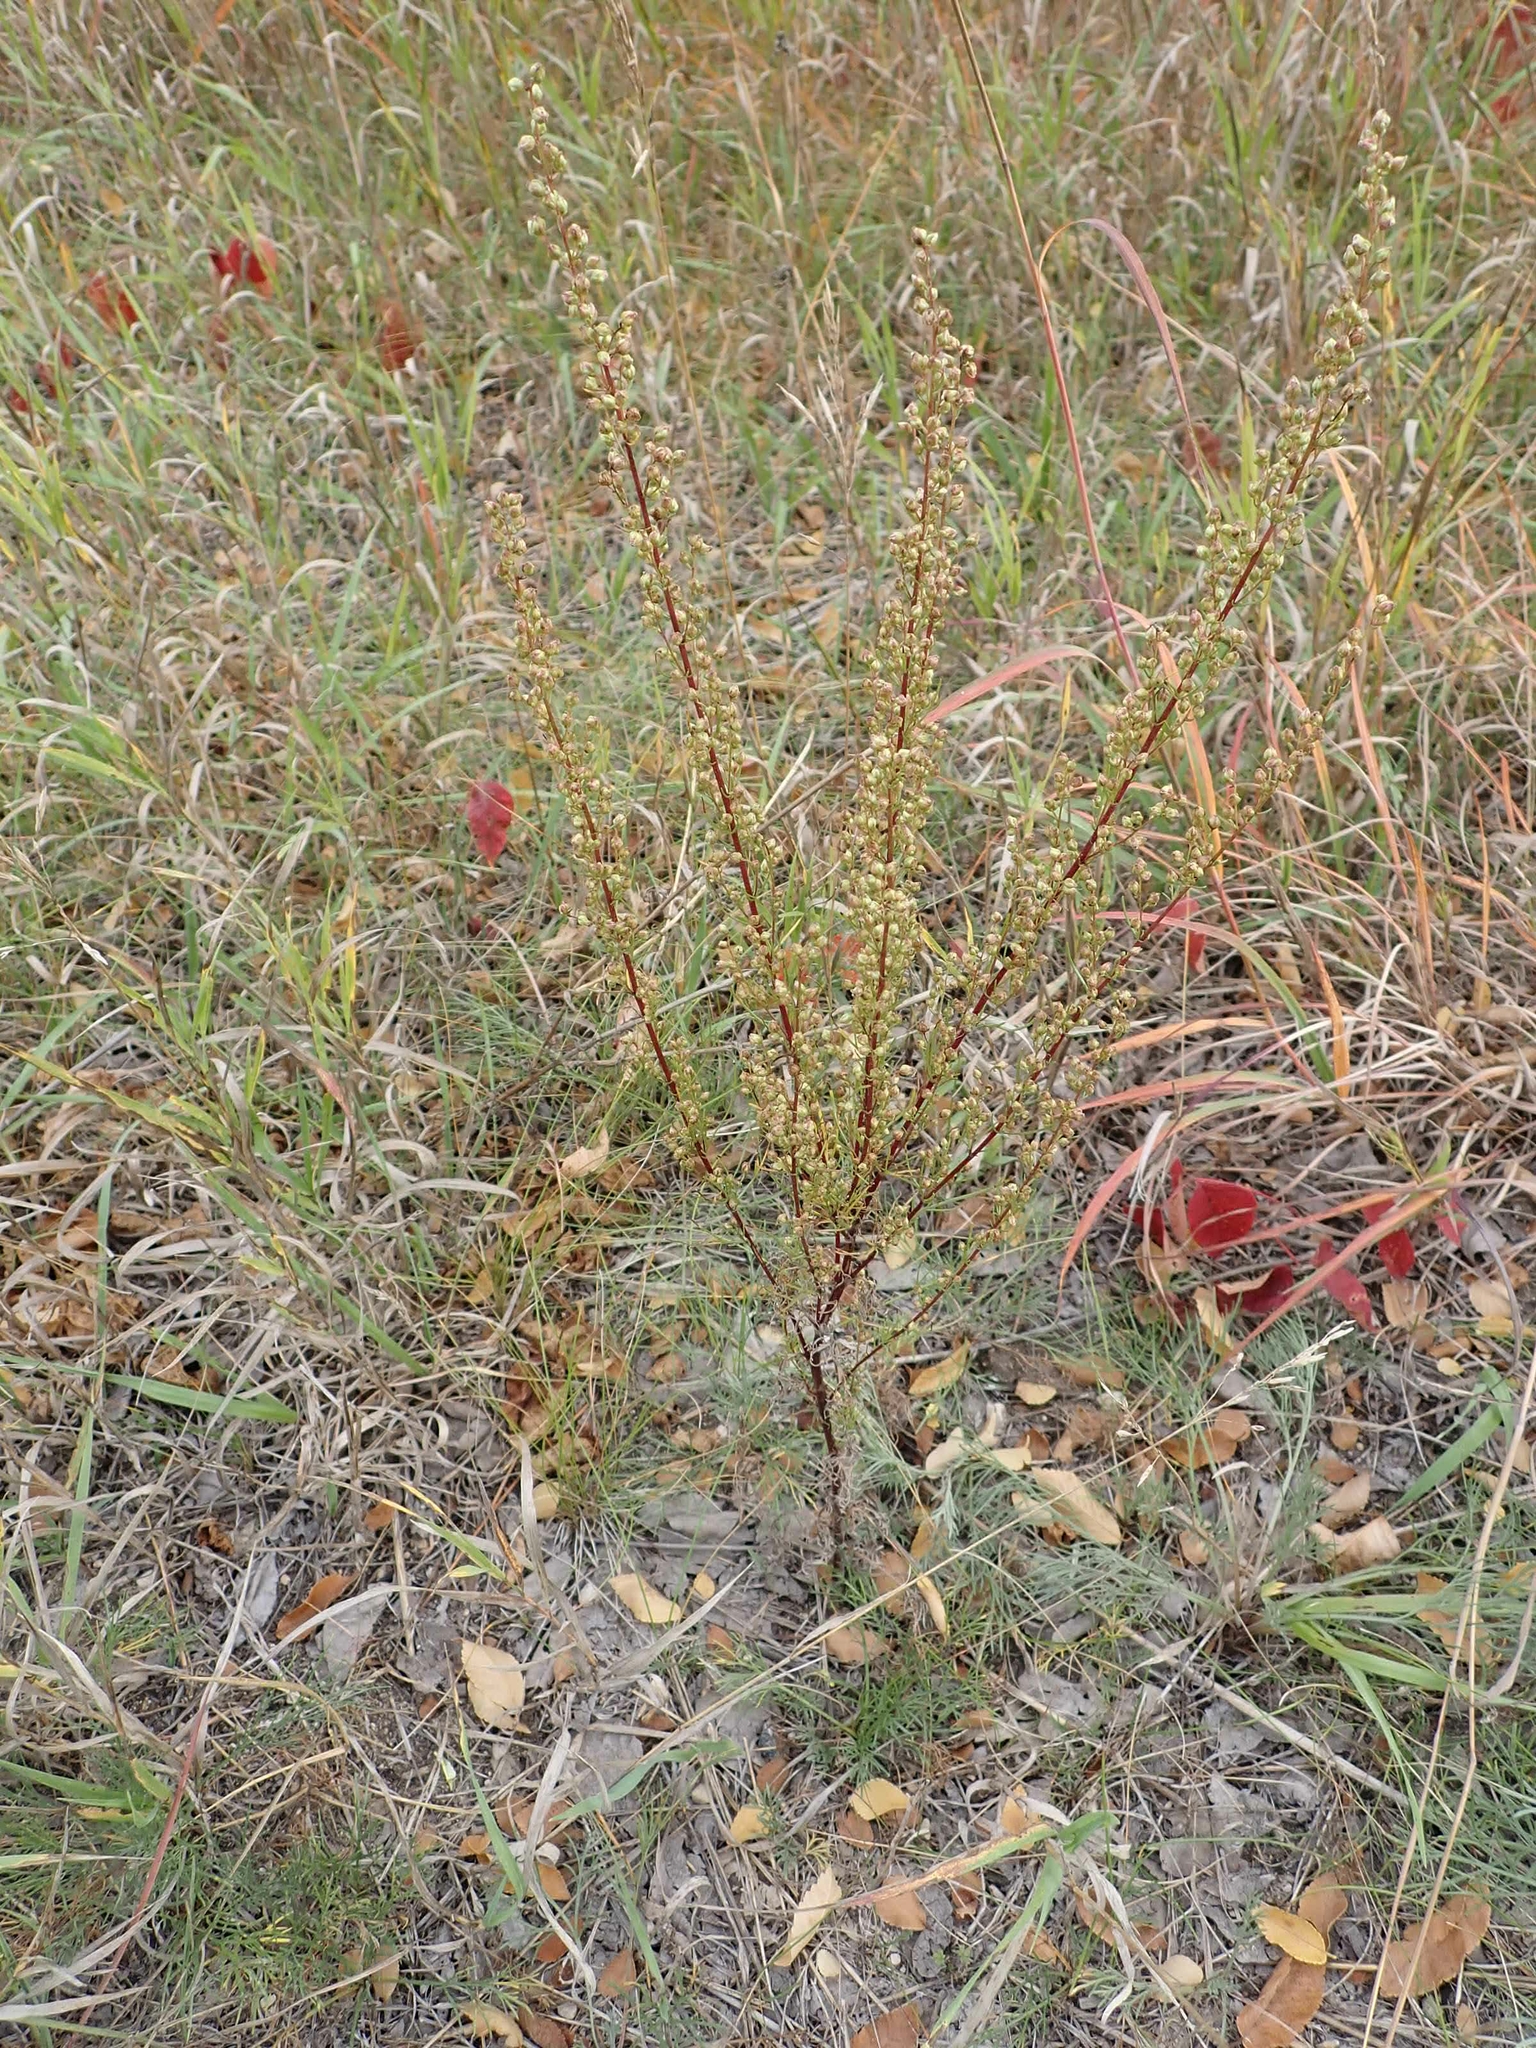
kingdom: Plantae
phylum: Tracheophyta
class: Magnoliopsida
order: Asterales
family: Asteraceae
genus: Artemisia
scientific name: Artemisia campestris
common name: Field wormwood
